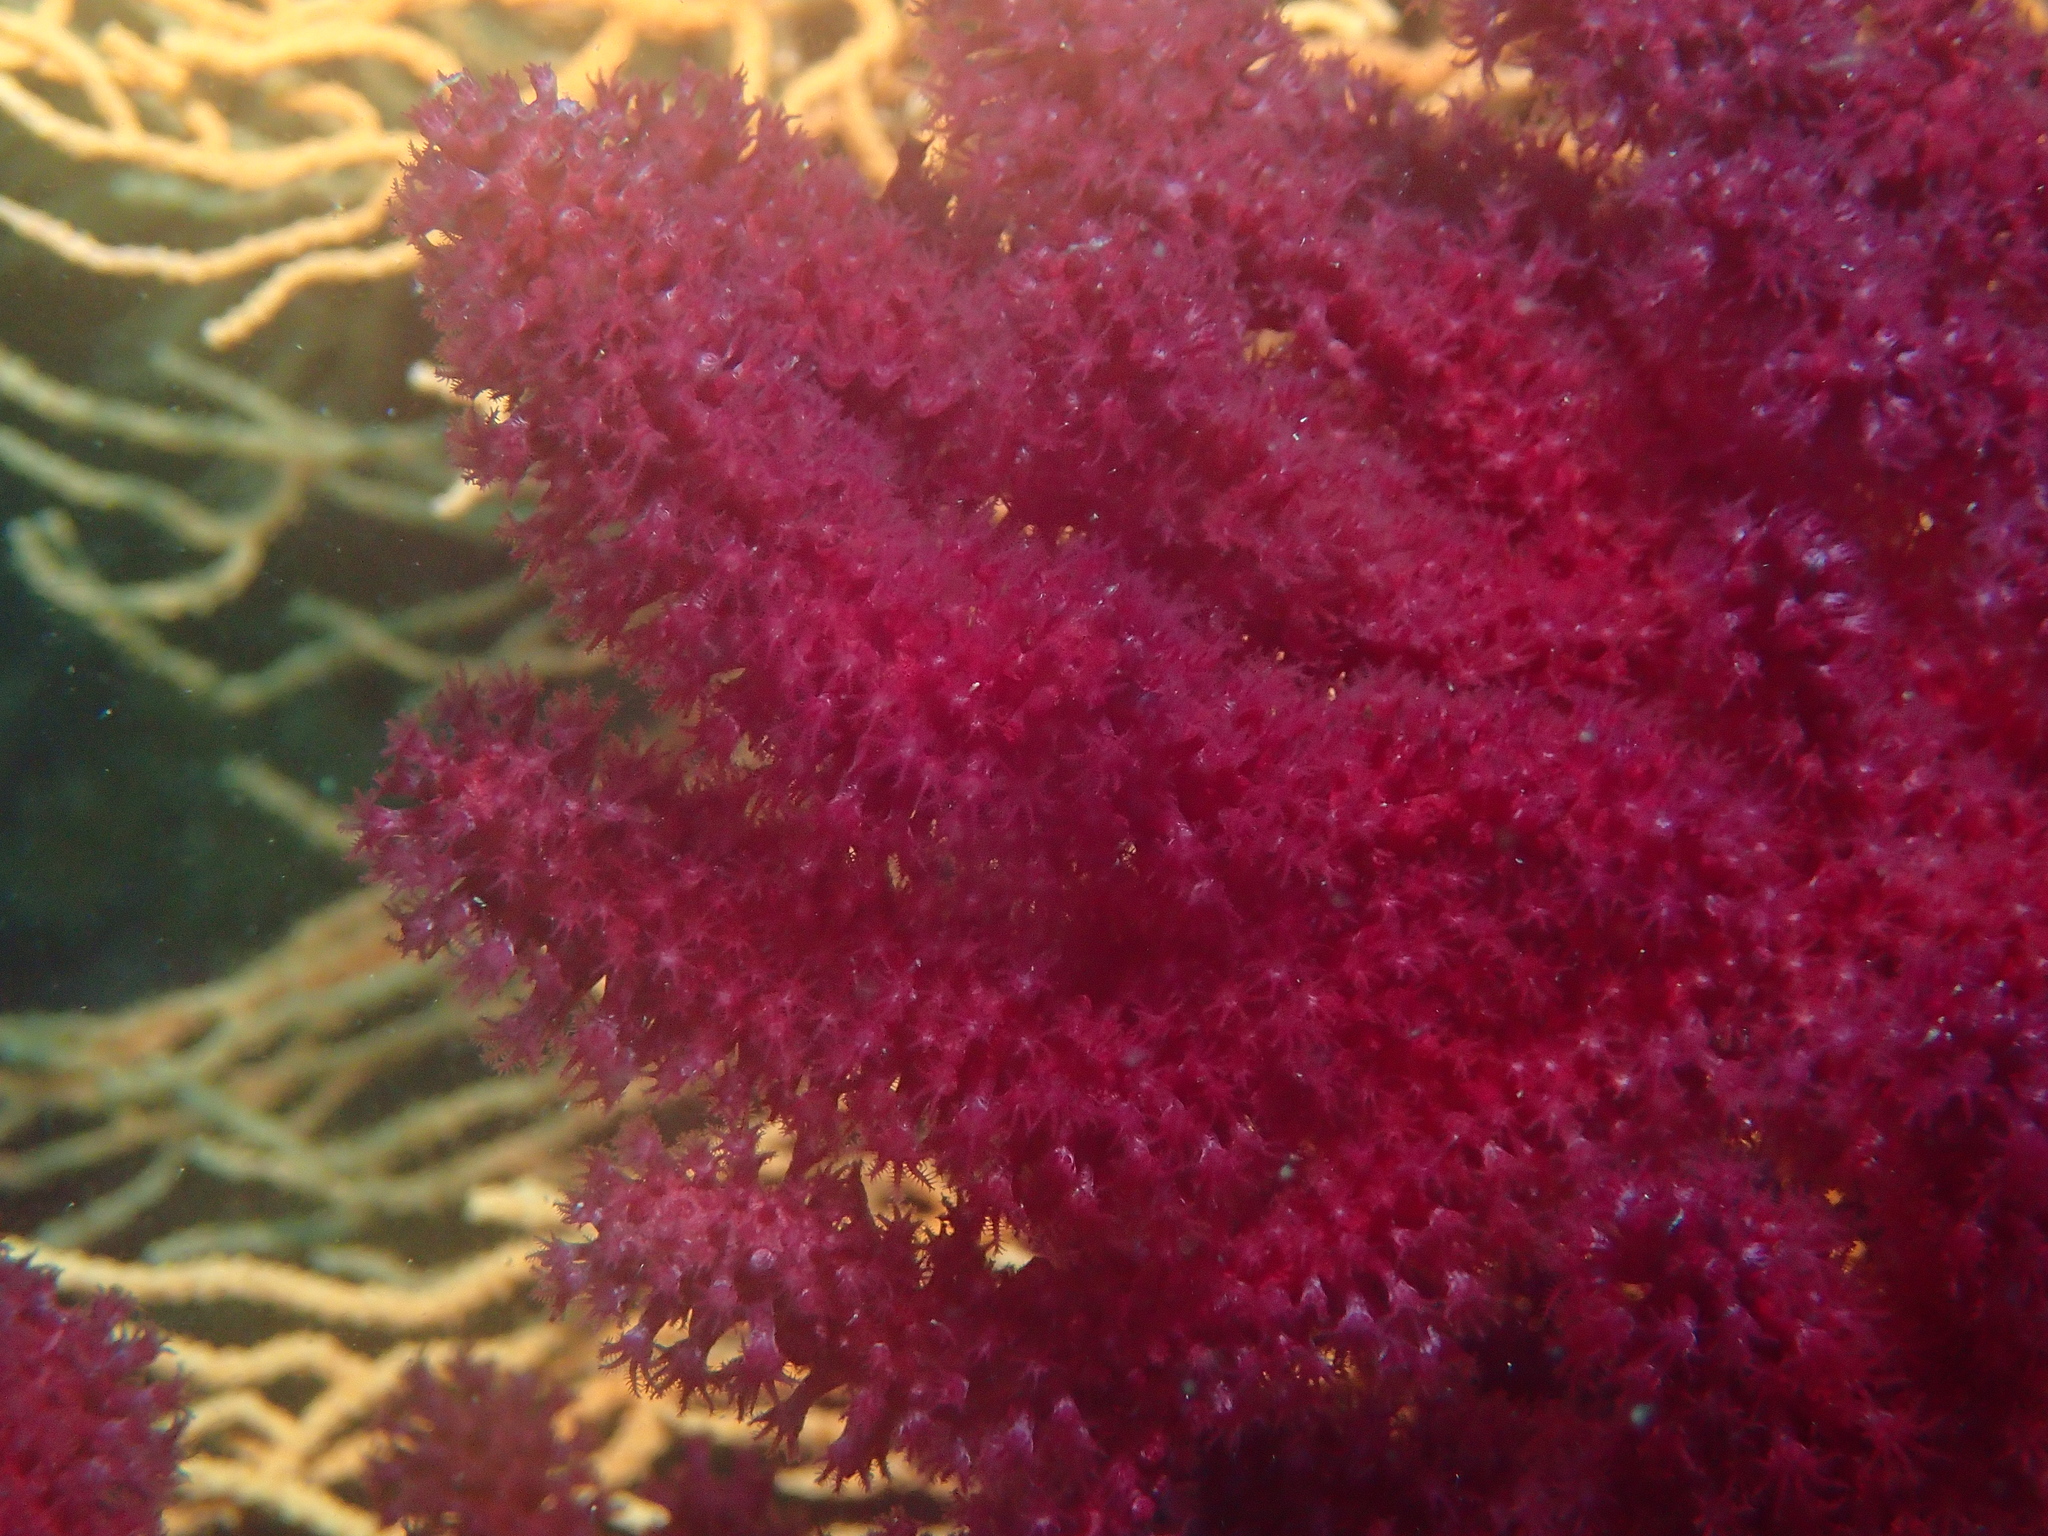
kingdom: Animalia
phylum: Cnidaria
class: Anthozoa
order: Malacalcyonacea
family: Paramuriceidae
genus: Paramuricea
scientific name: Paramuricea clavata
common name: Violescent sea-whip
